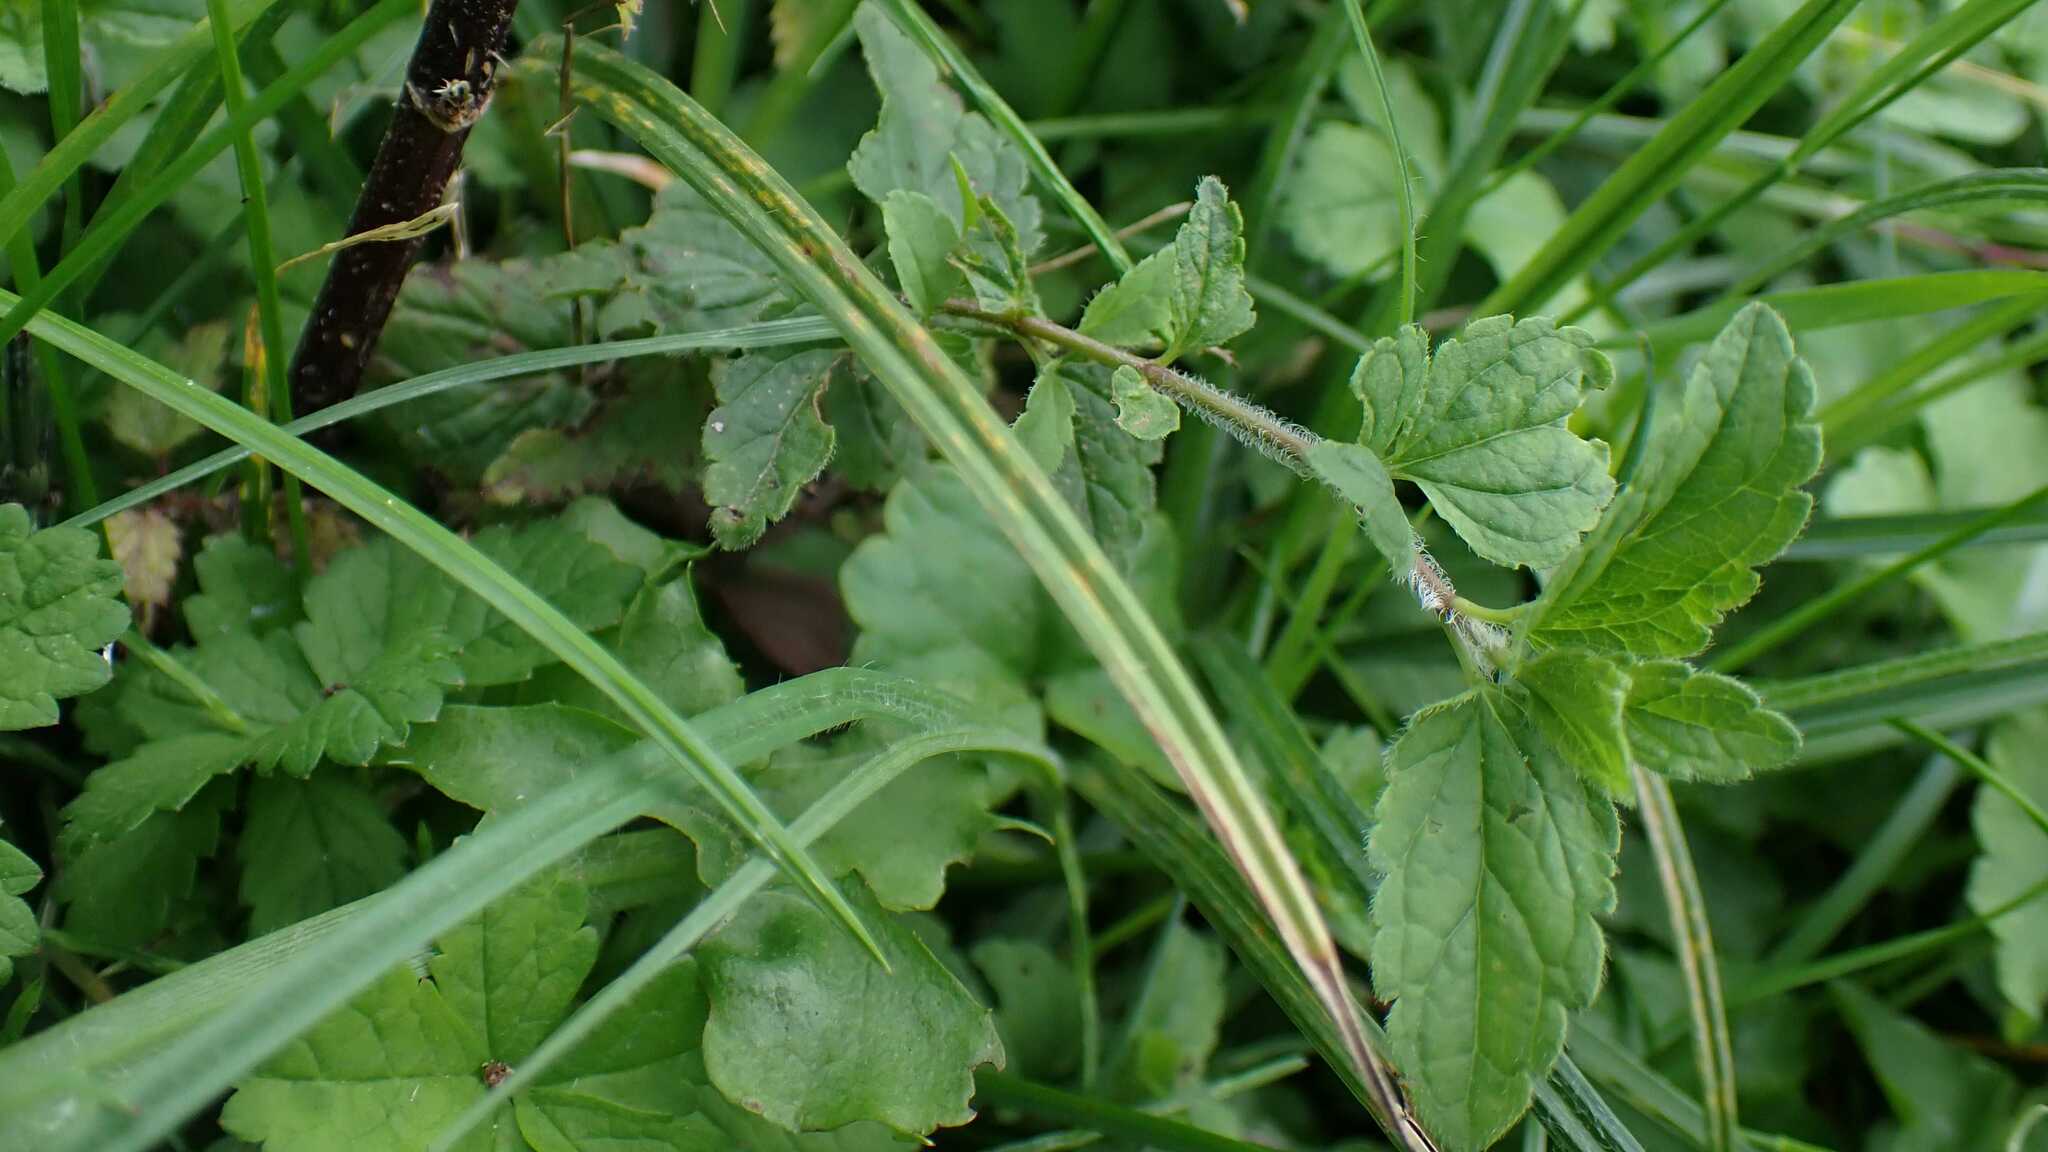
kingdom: Plantae
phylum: Tracheophyta
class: Magnoliopsida
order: Lamiales
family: Plantaginaceae
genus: Veronica
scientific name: Veronica chamaedrys
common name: Germander speedwell
